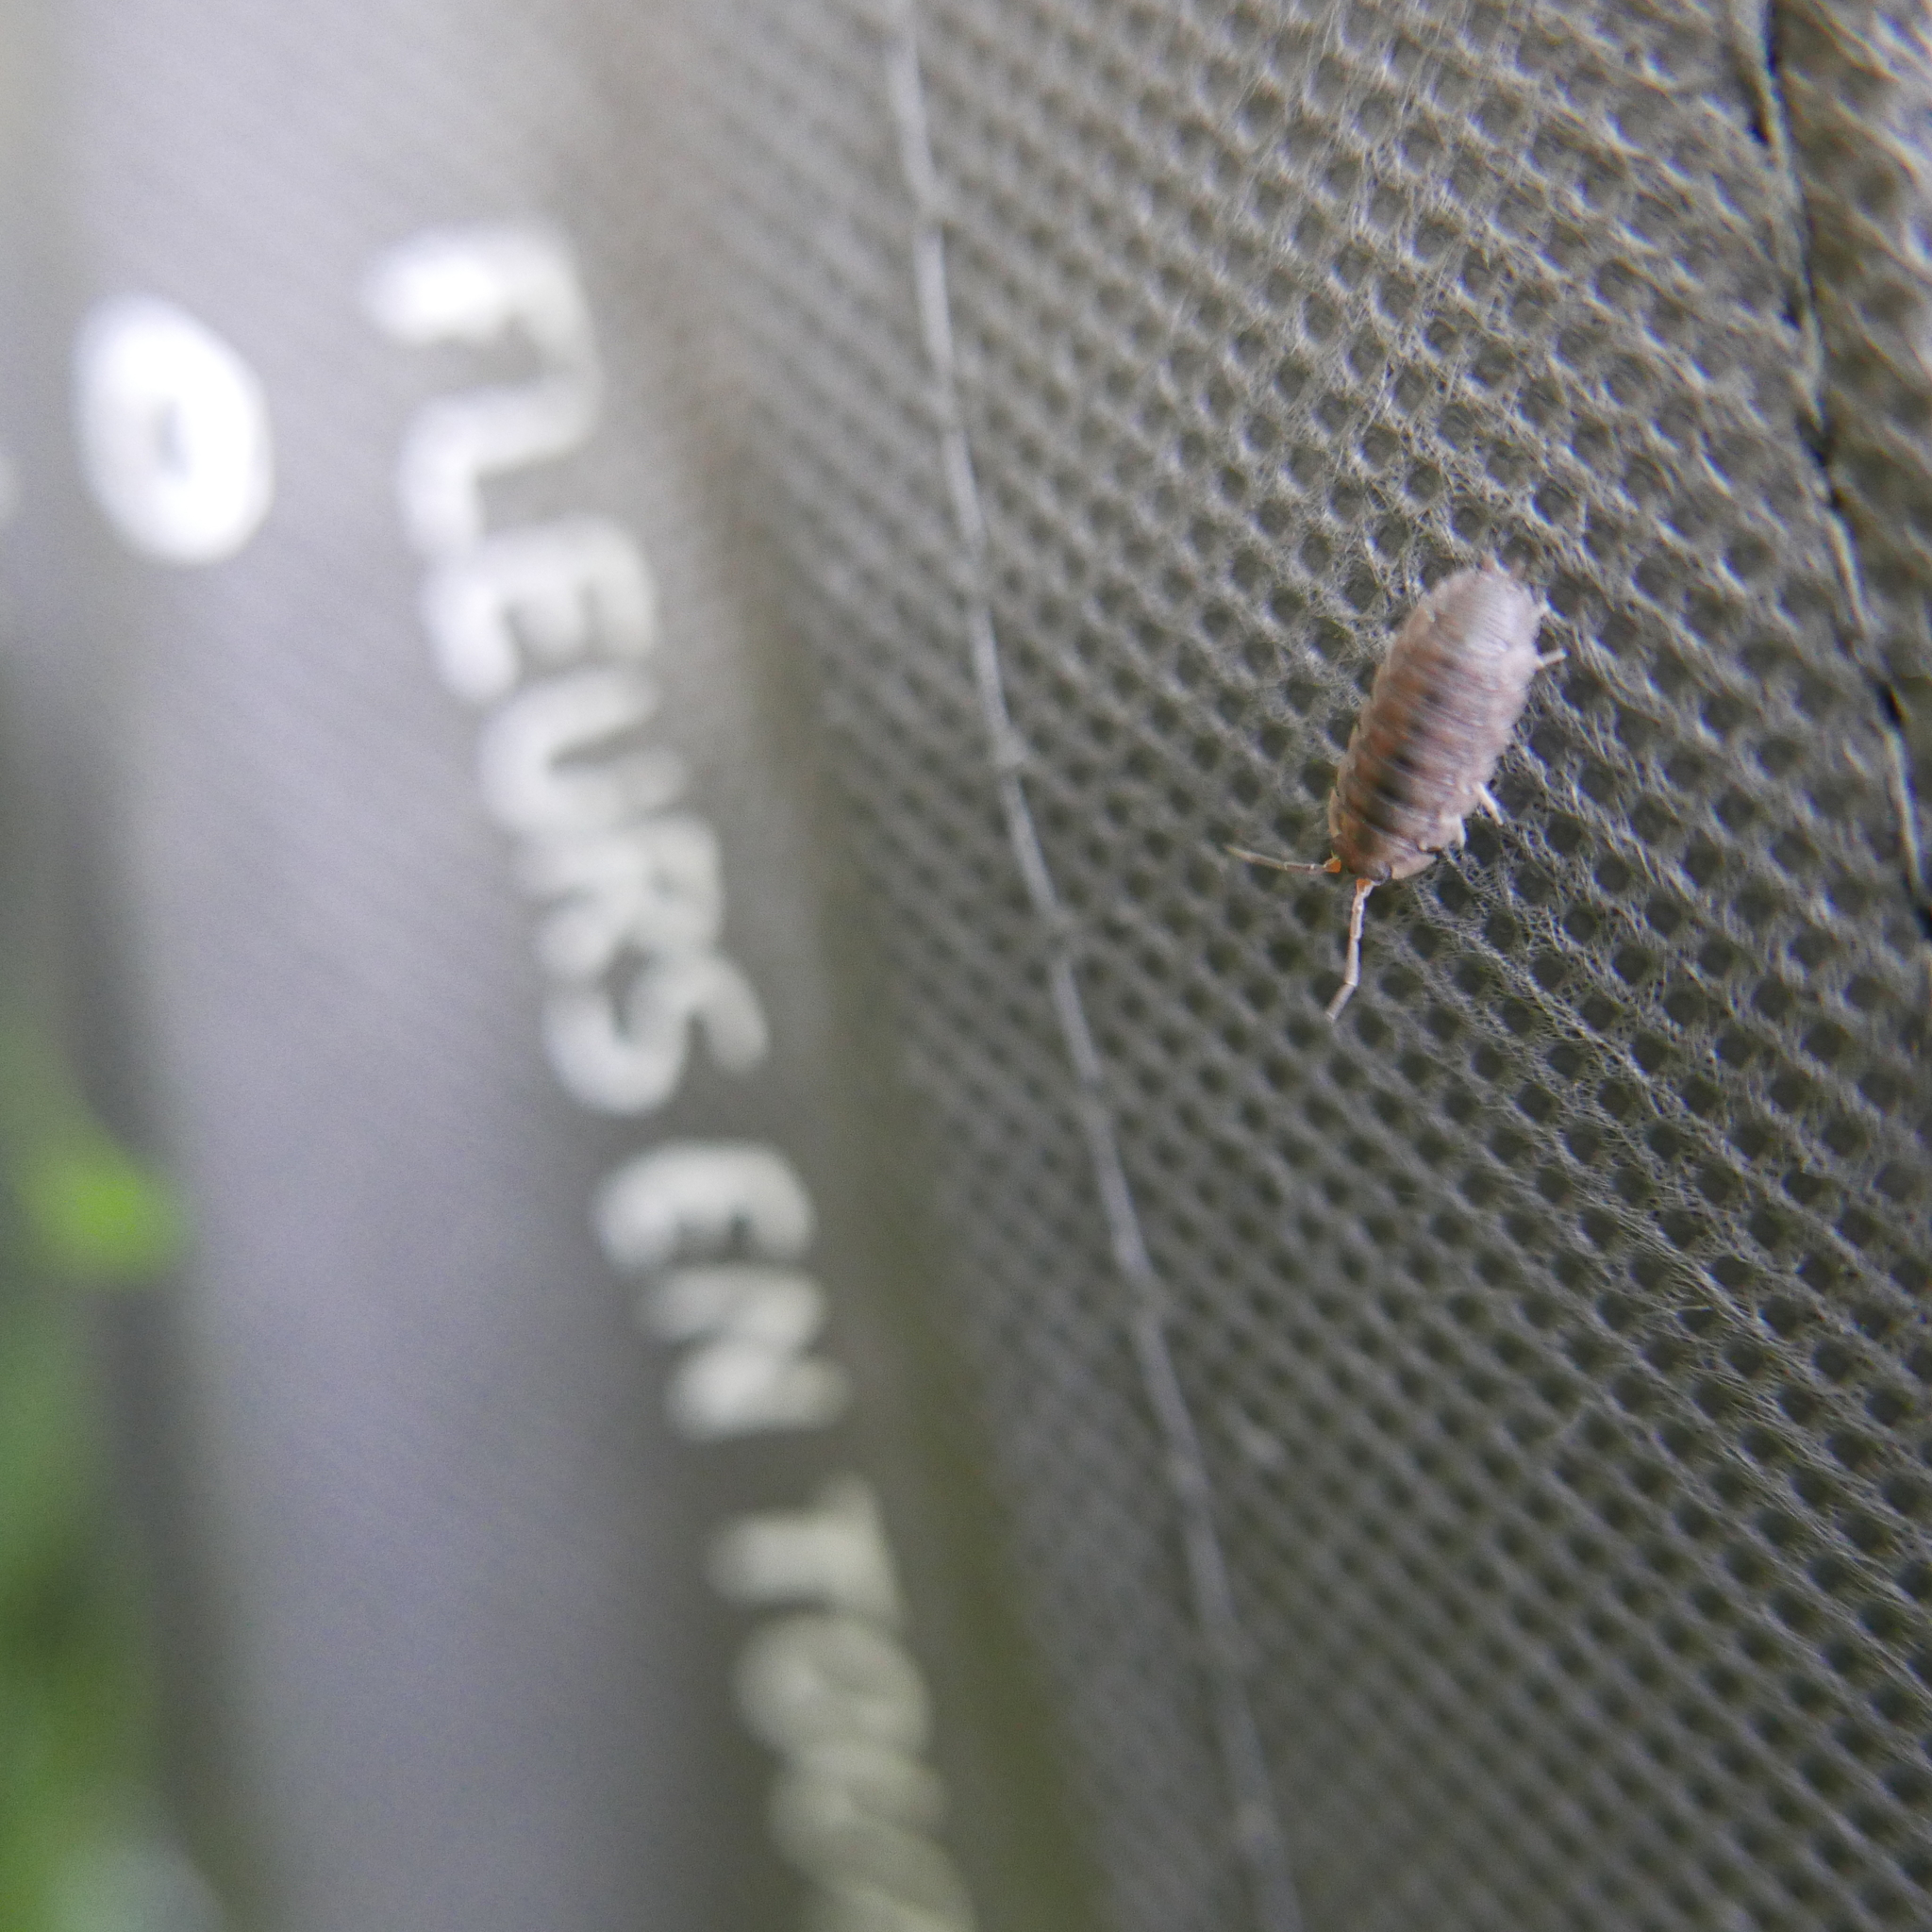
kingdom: Animalia
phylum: Arthropoda
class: Malacostraca
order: Isopoda
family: Porcellionidae
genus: Porcellio
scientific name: Porcellio scaber
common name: Common rough woodlouse
